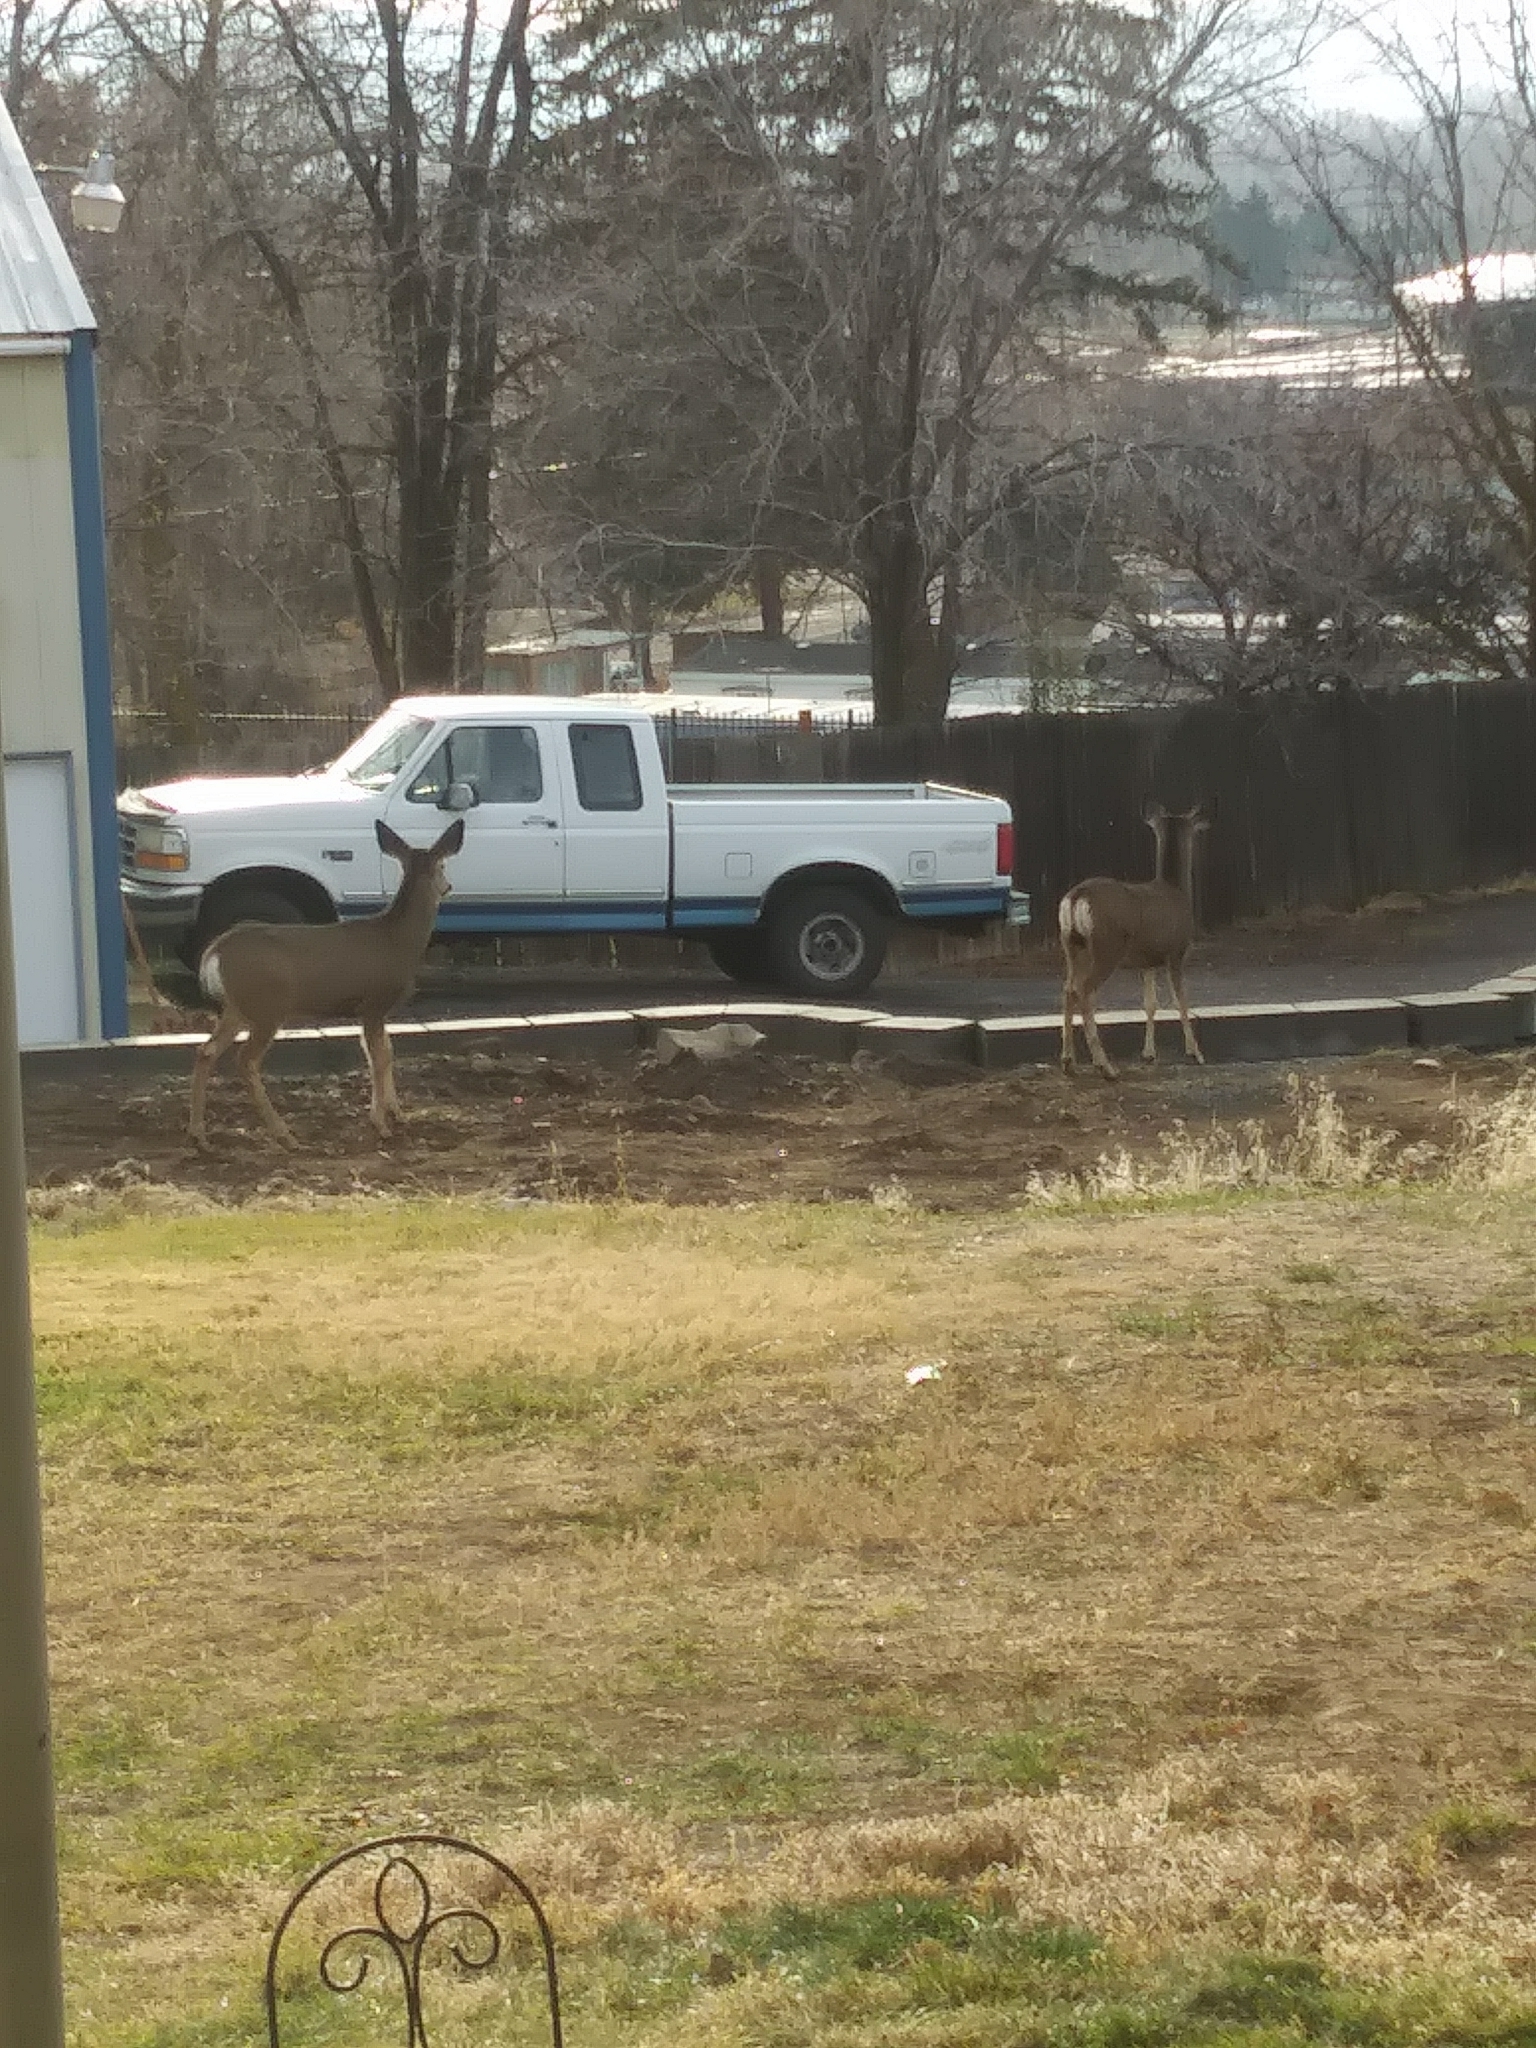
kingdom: Animalia
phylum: Chordata
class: Mammalia
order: Artiodactyla
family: Cervidae
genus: Odocoileus
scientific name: Odocoileus hemionus
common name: Mule deer
